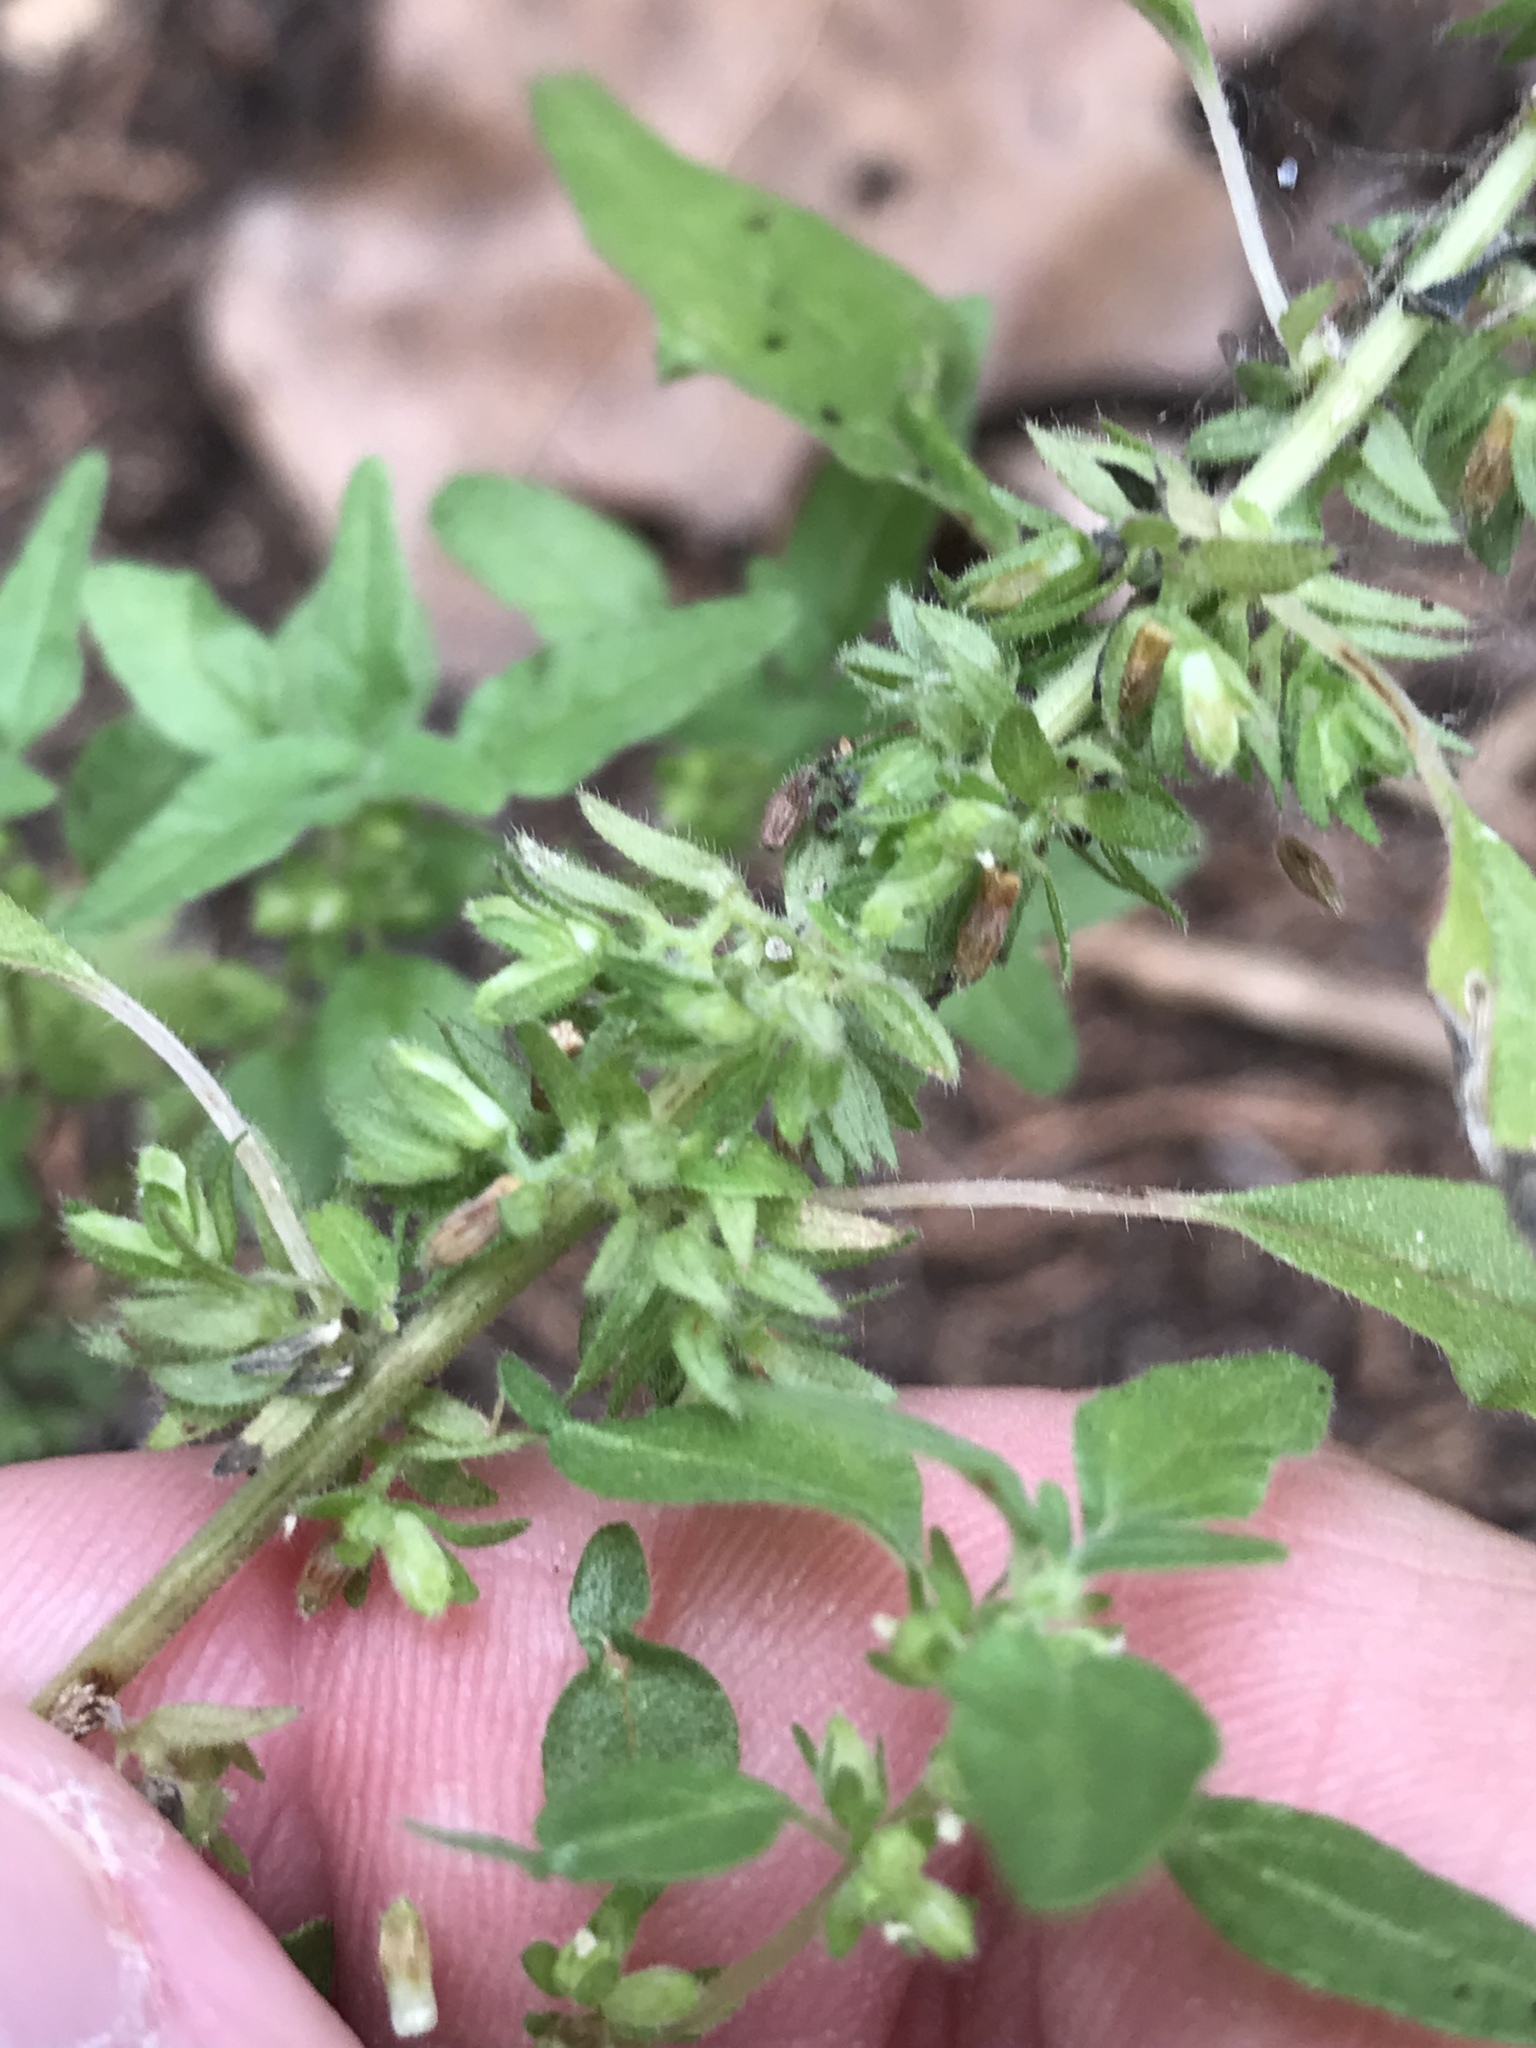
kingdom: Plantae
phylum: Tracheophyta
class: Magnoliopsida
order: Rosales
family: Urticaceae
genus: Parietaria
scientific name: Parietaria pensylvanica
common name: Pennsylvania pellitory
